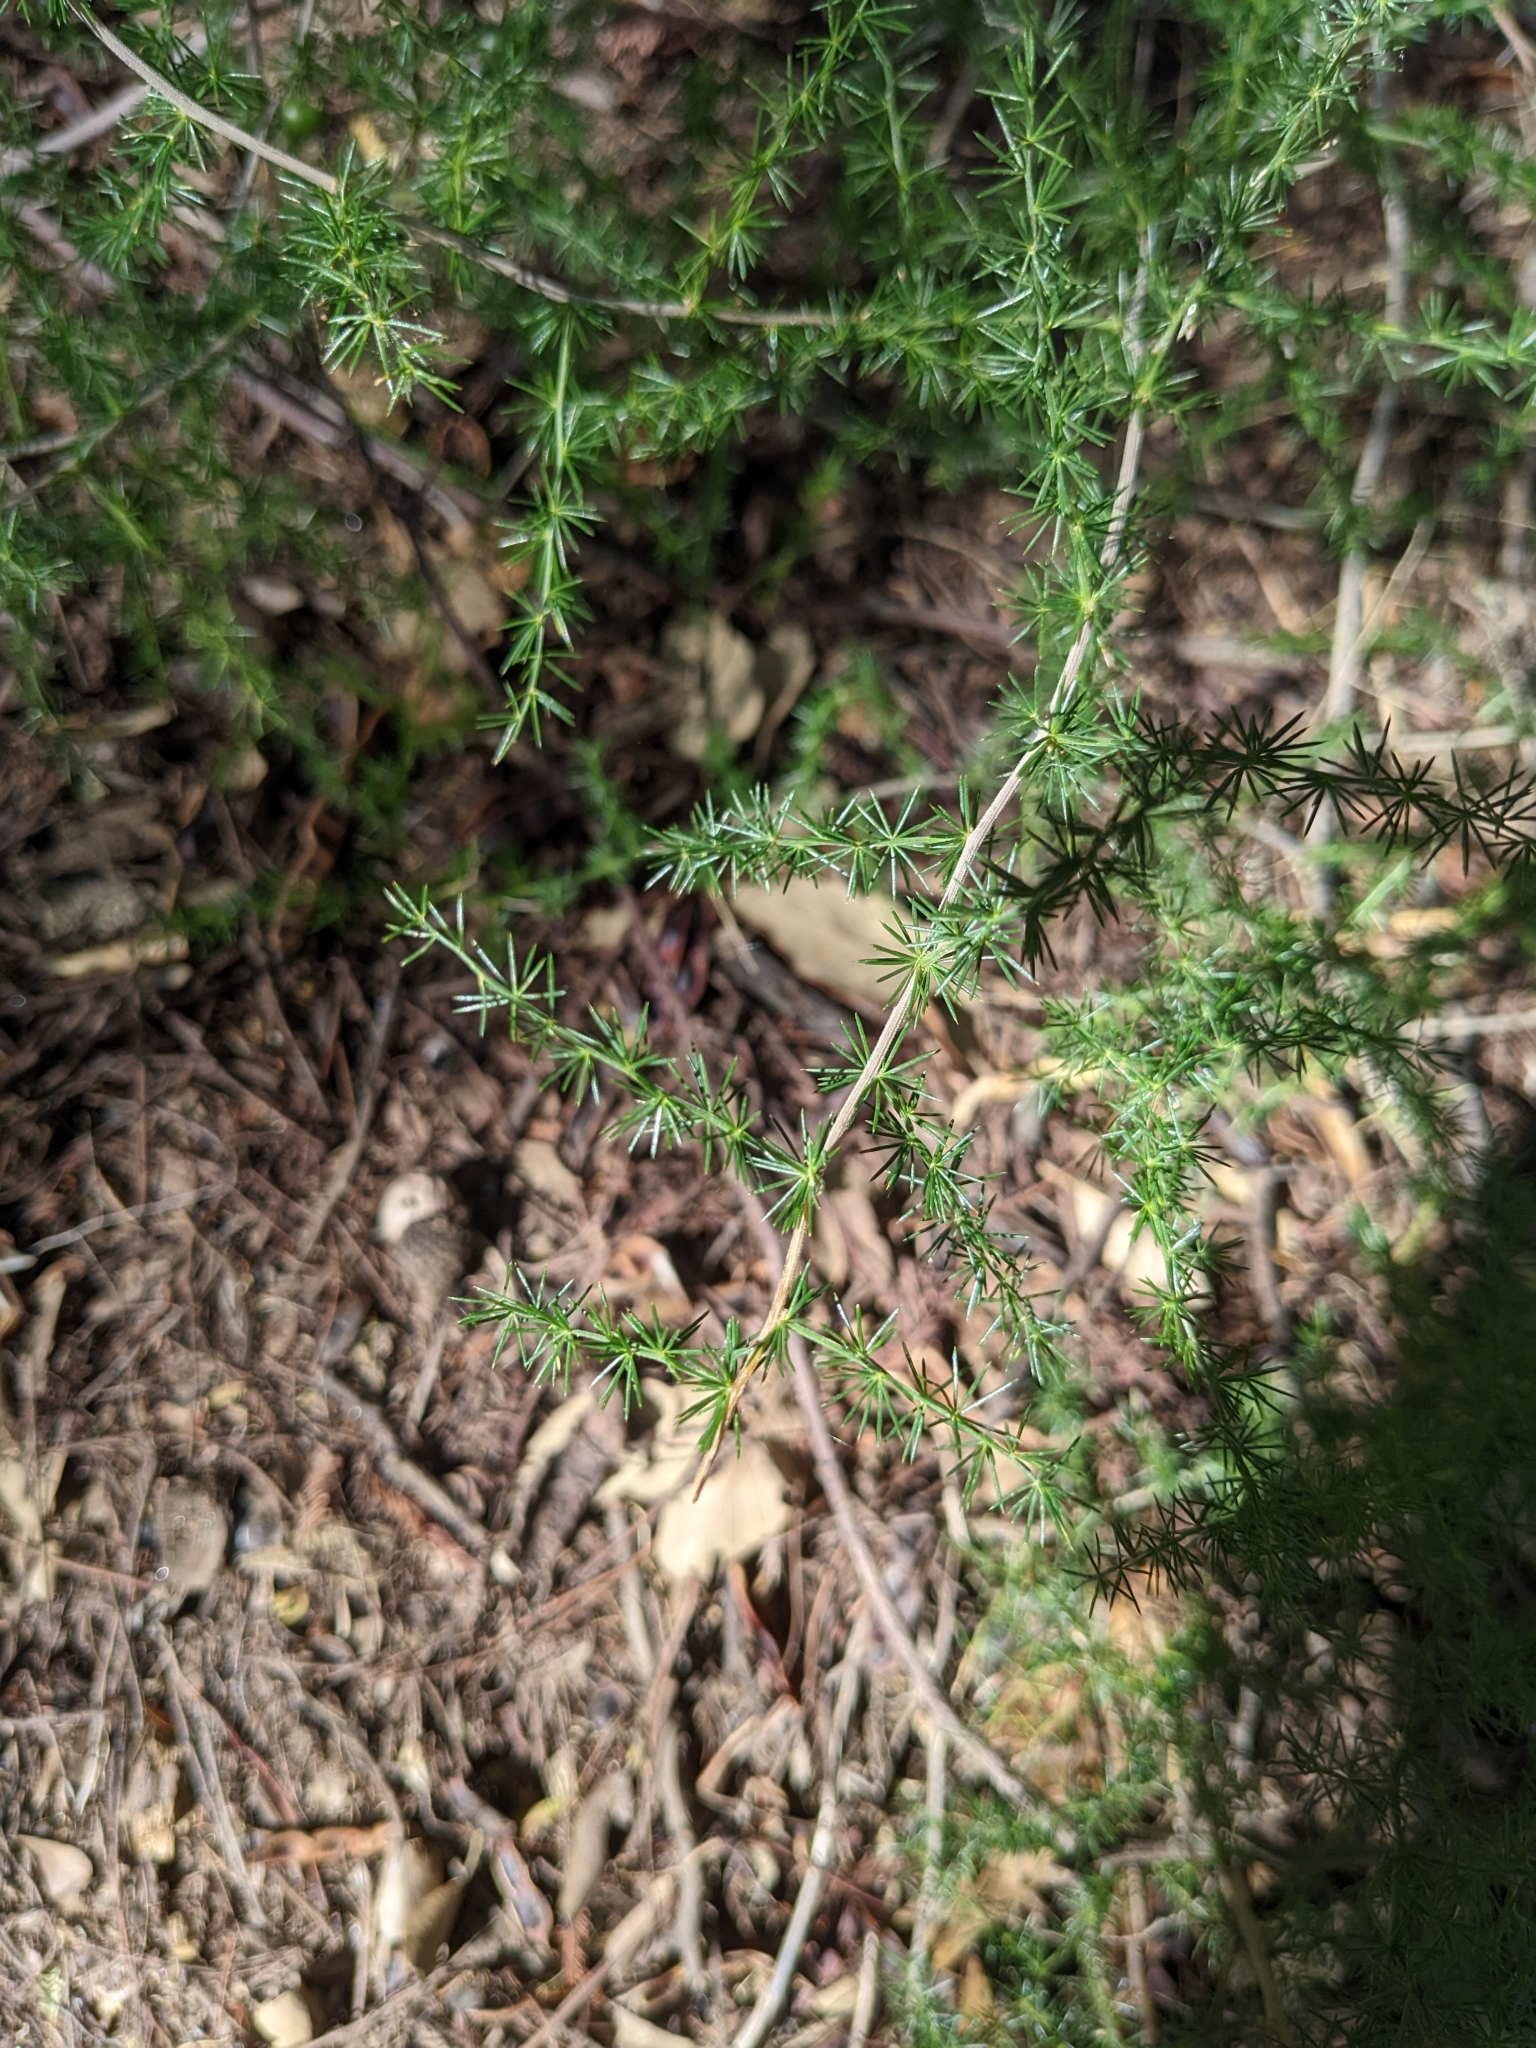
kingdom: Plantae
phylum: Tracheophyta
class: Liliopsida
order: Asparagales
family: Asparagaceae
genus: Asparagus
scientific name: Asparagus acutifolius
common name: Wild asparagus
